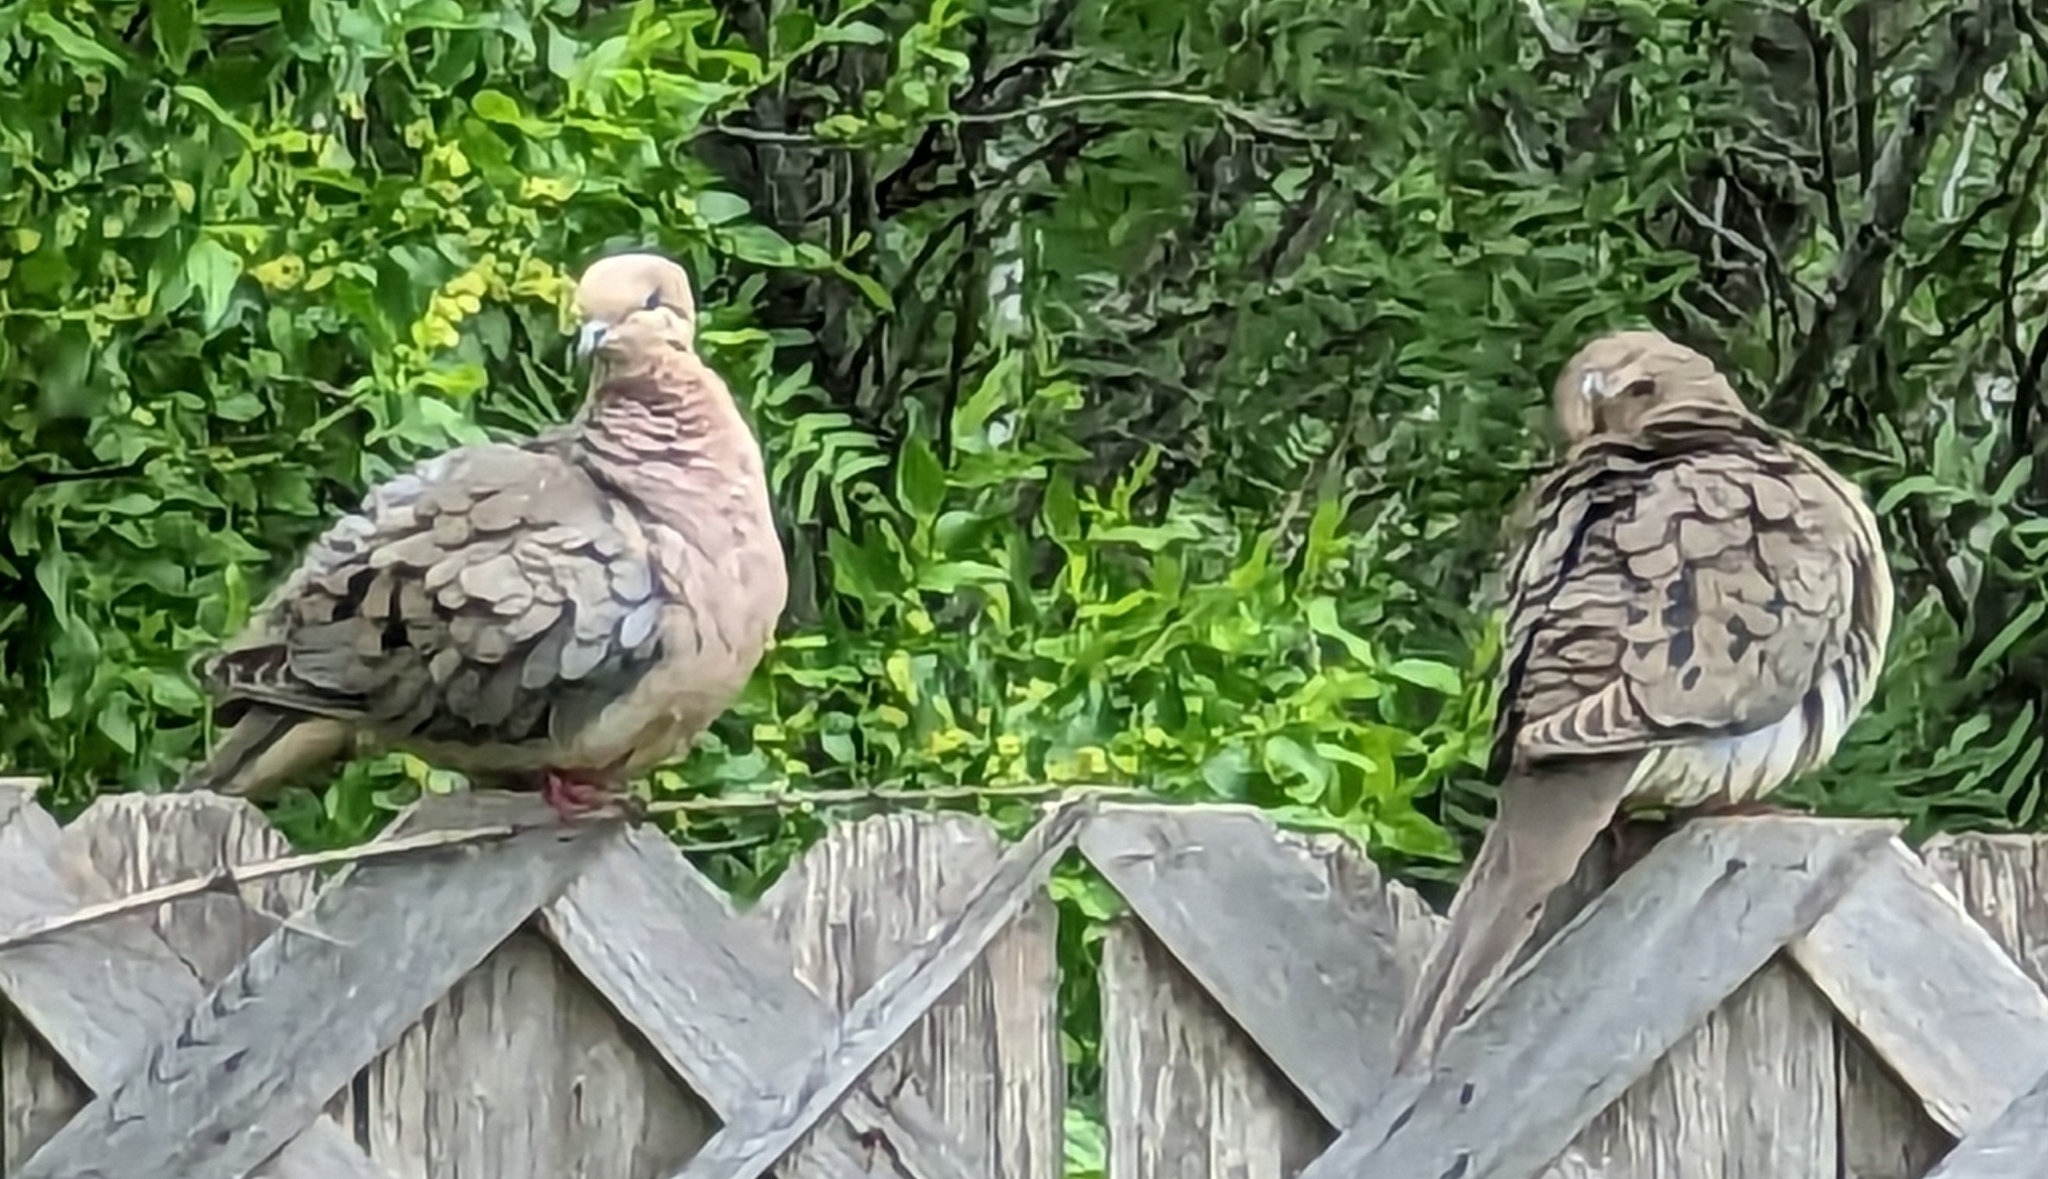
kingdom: Animalia
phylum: Chordata
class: Aves
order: Columbiformes
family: Columbidae
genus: Zenaida
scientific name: Zenaida macroura
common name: Mourning dove
